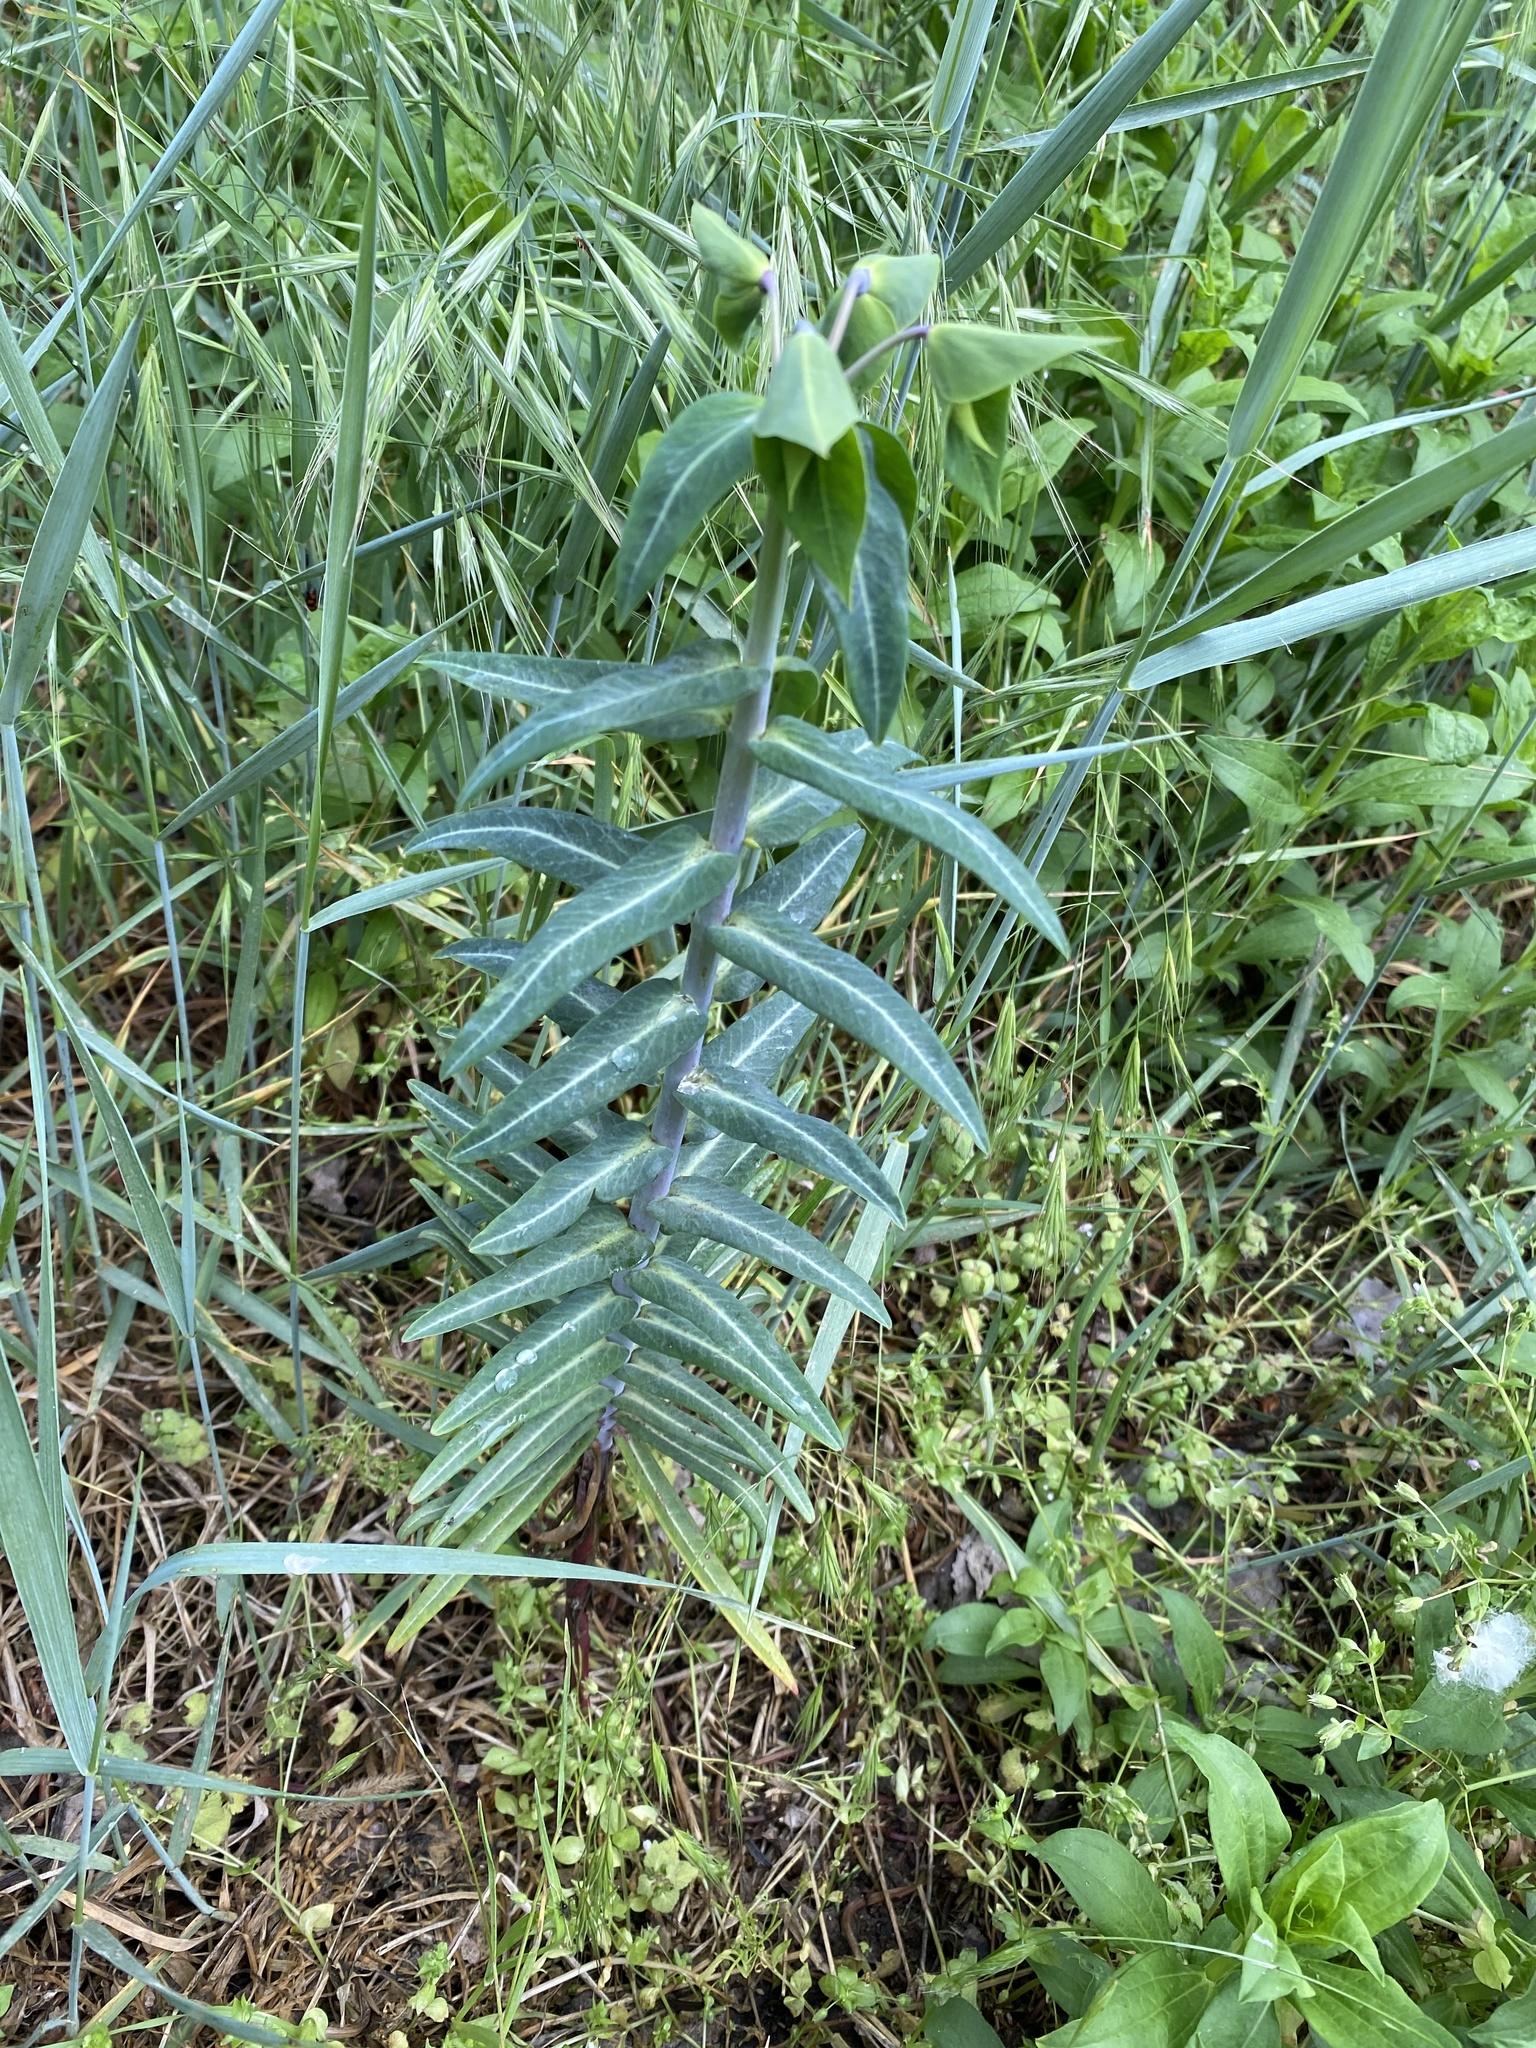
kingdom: Plantae
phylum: Tracheophyta
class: Magnoliopsida
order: Malpighiales
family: Euphorbiaceae
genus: Euphorbia
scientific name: Euphorbia lathyris
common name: Caper spurge
